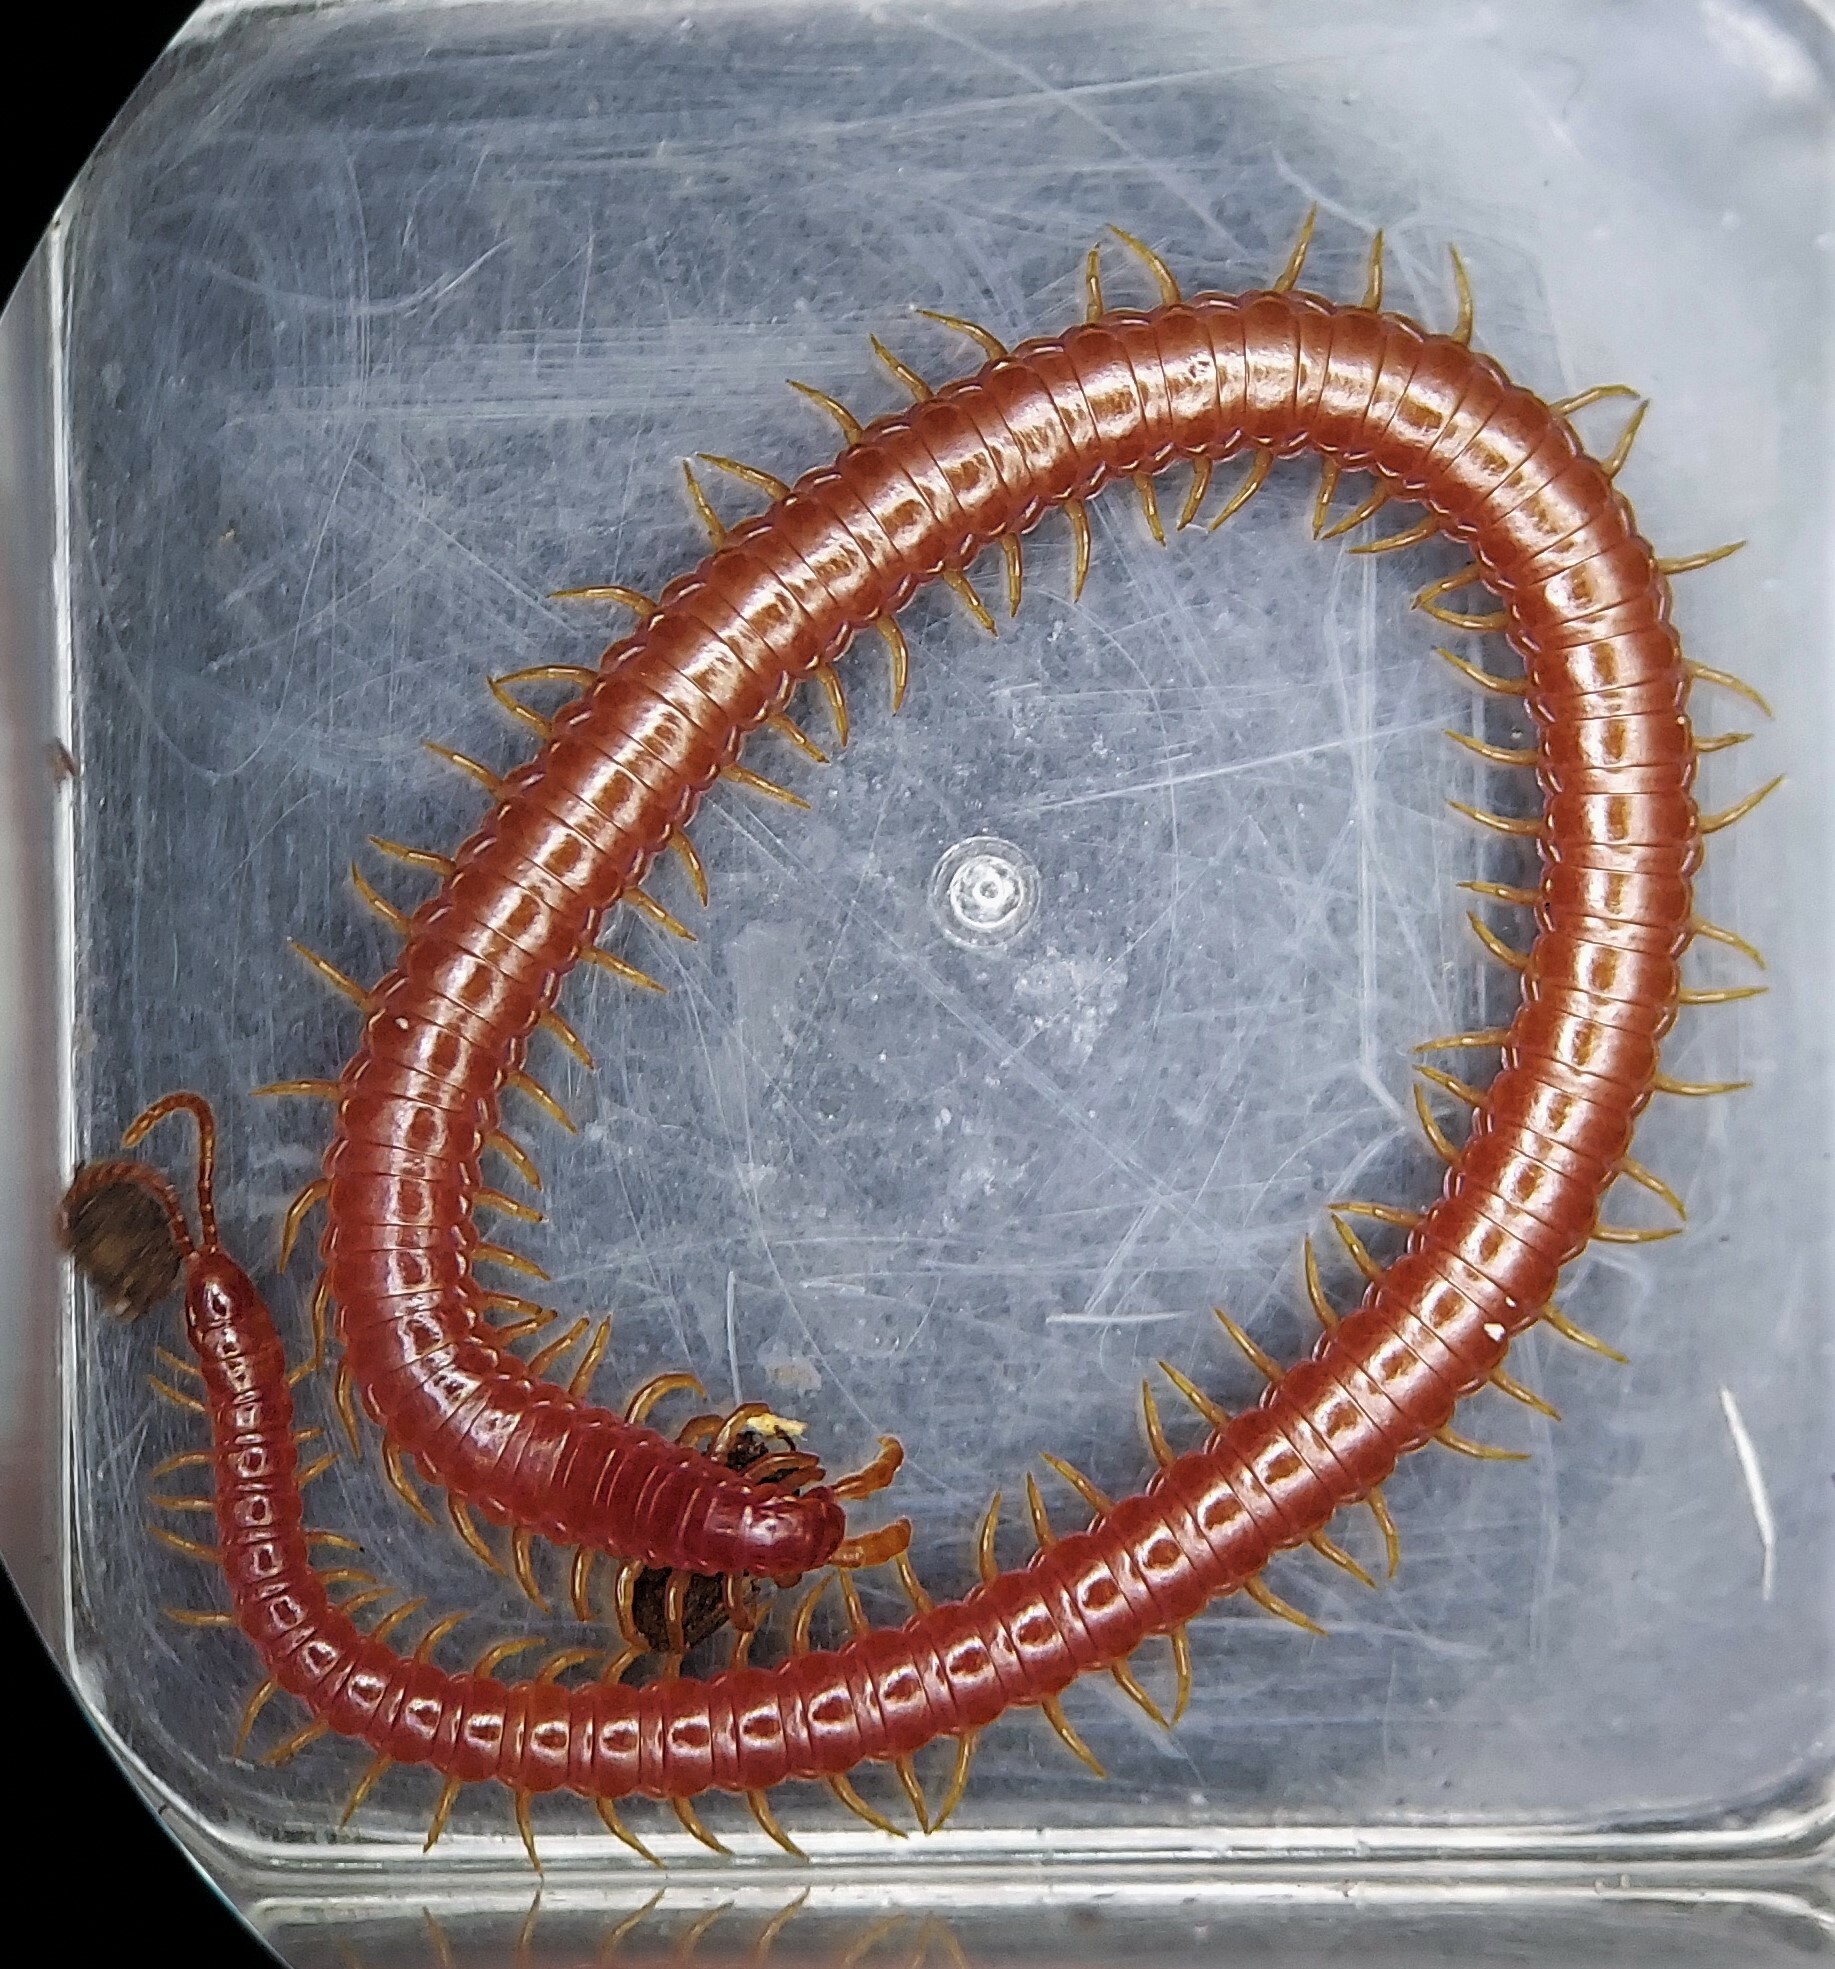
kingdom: Animalia
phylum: Arthropoda
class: Chilopoda
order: Geophilomorpha
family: Linotaeniidae
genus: Strigamia
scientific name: Strigamia bidens
